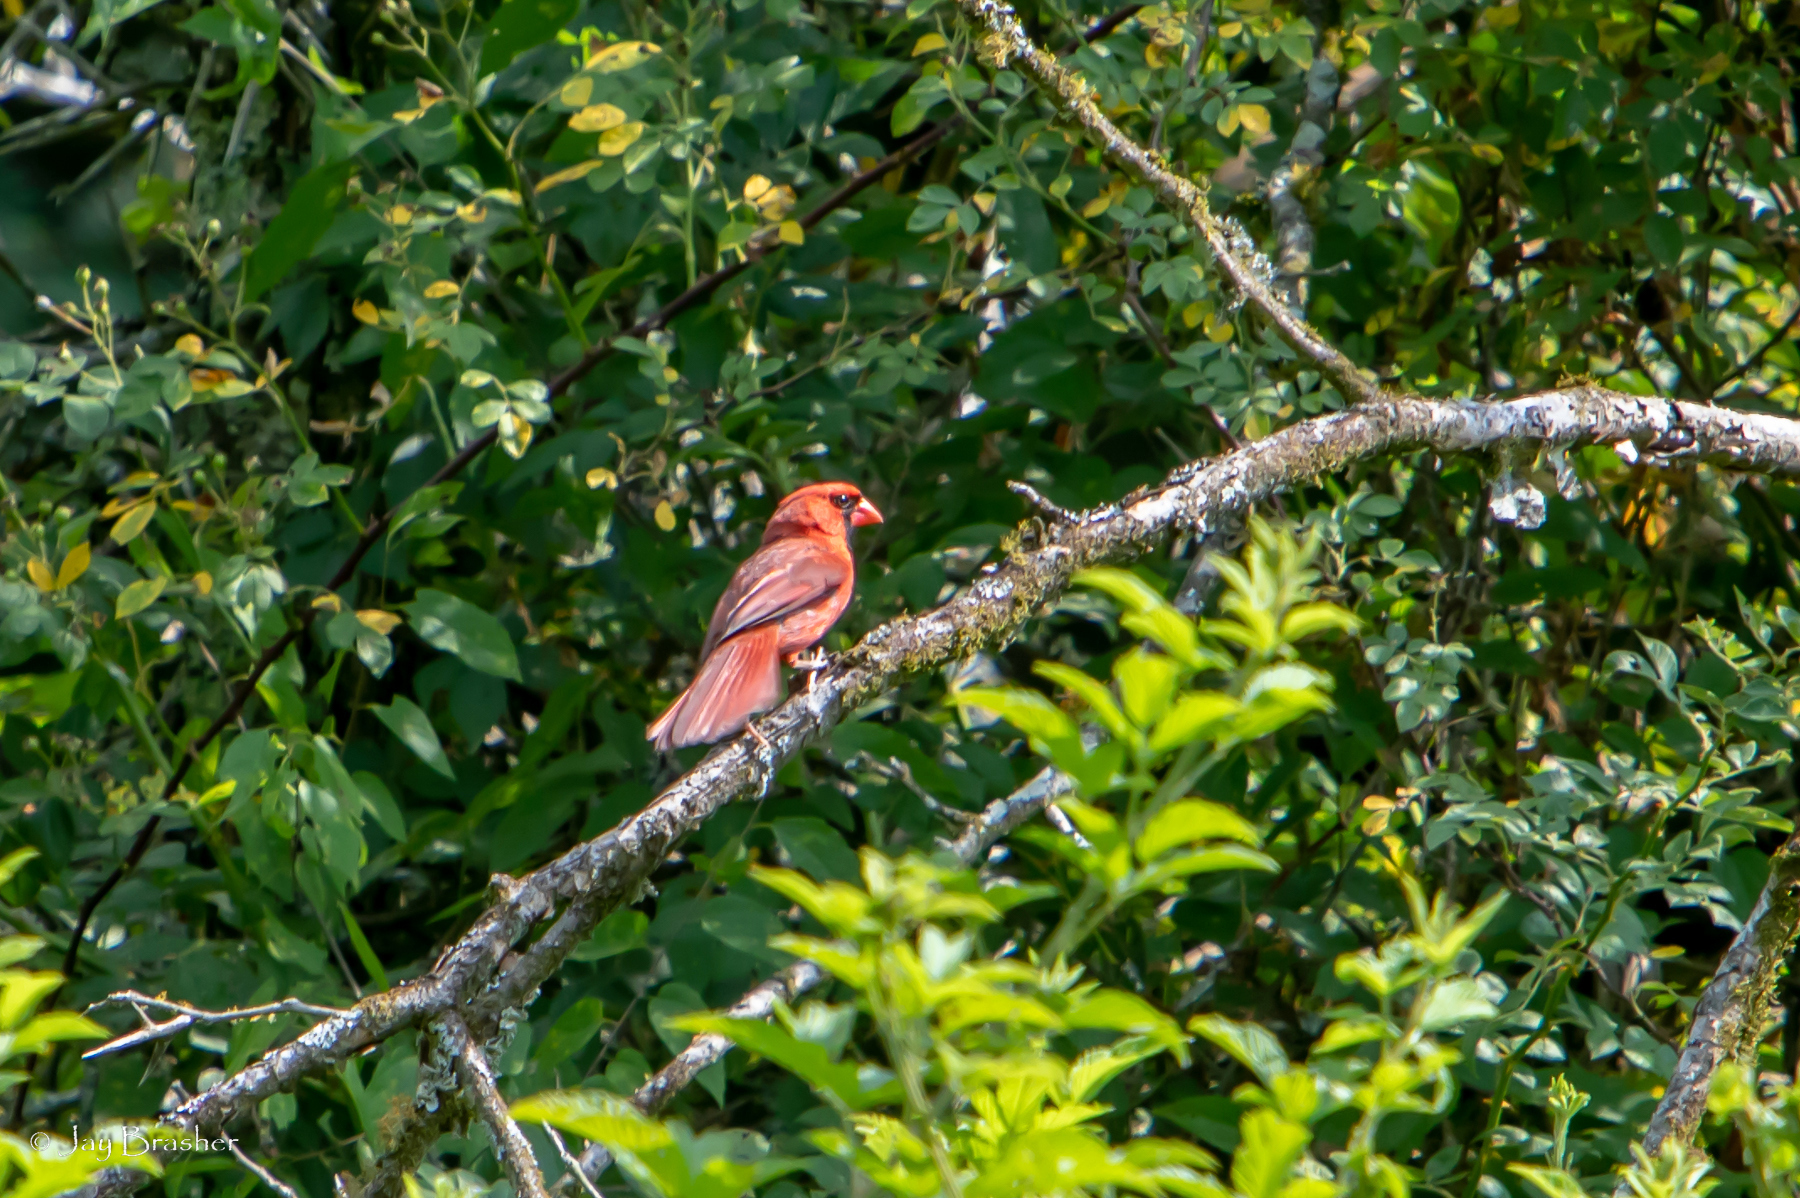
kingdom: Animalia
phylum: Chordata
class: Aves
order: Passeriformes
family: Cardinalidae
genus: Cardinalis
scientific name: Cardinalis cardinalis
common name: Northern cardinal
